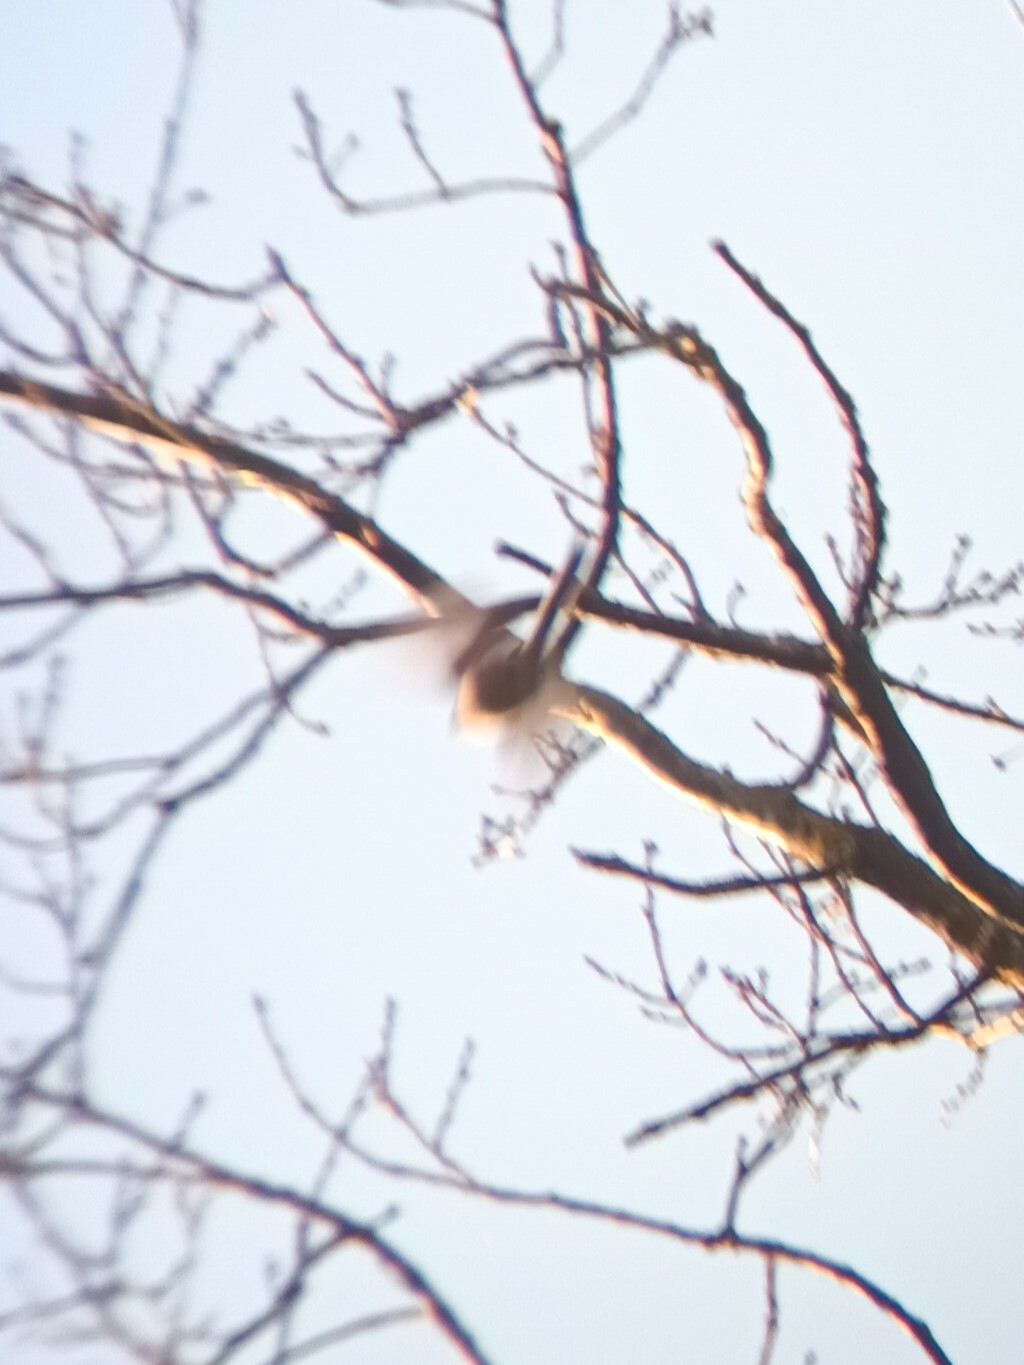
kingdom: Animalia
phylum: Chordata
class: Aves
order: Passeriformes
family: Aegithalidae
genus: Aegithalos
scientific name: Aegithalos caudatus
